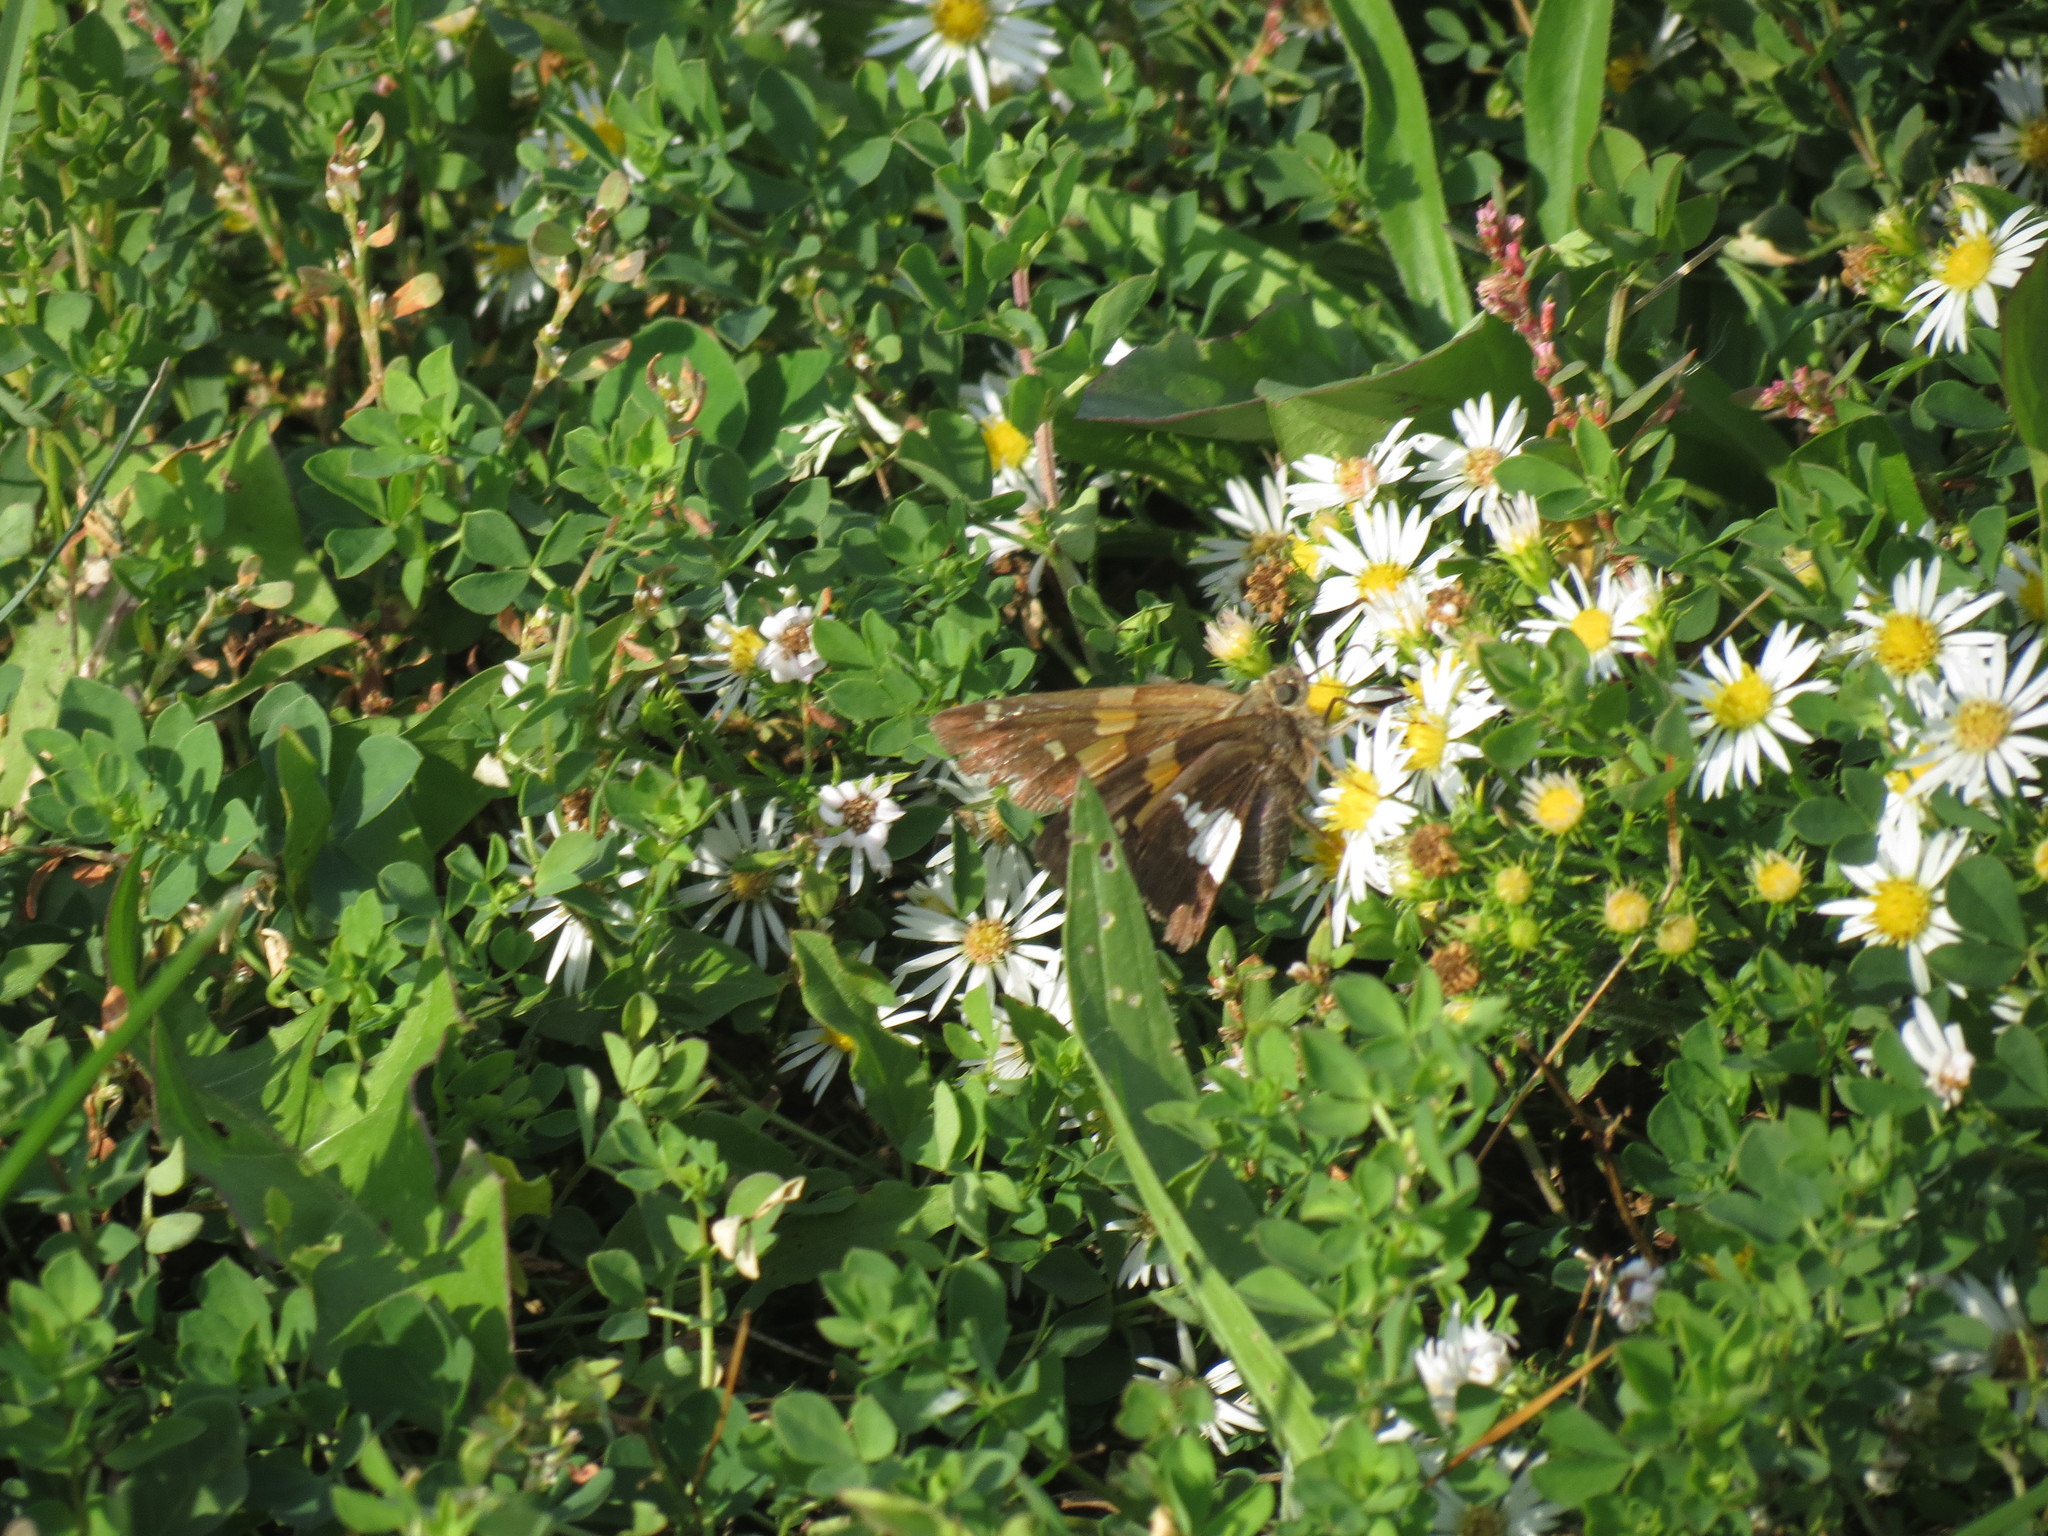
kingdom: Animalia
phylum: Arthropoda
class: Insecta
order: Lepidoptera
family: Hesperiidae
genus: Epargyreus
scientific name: Epargyreus clarus
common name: Silver-spotted skipper
